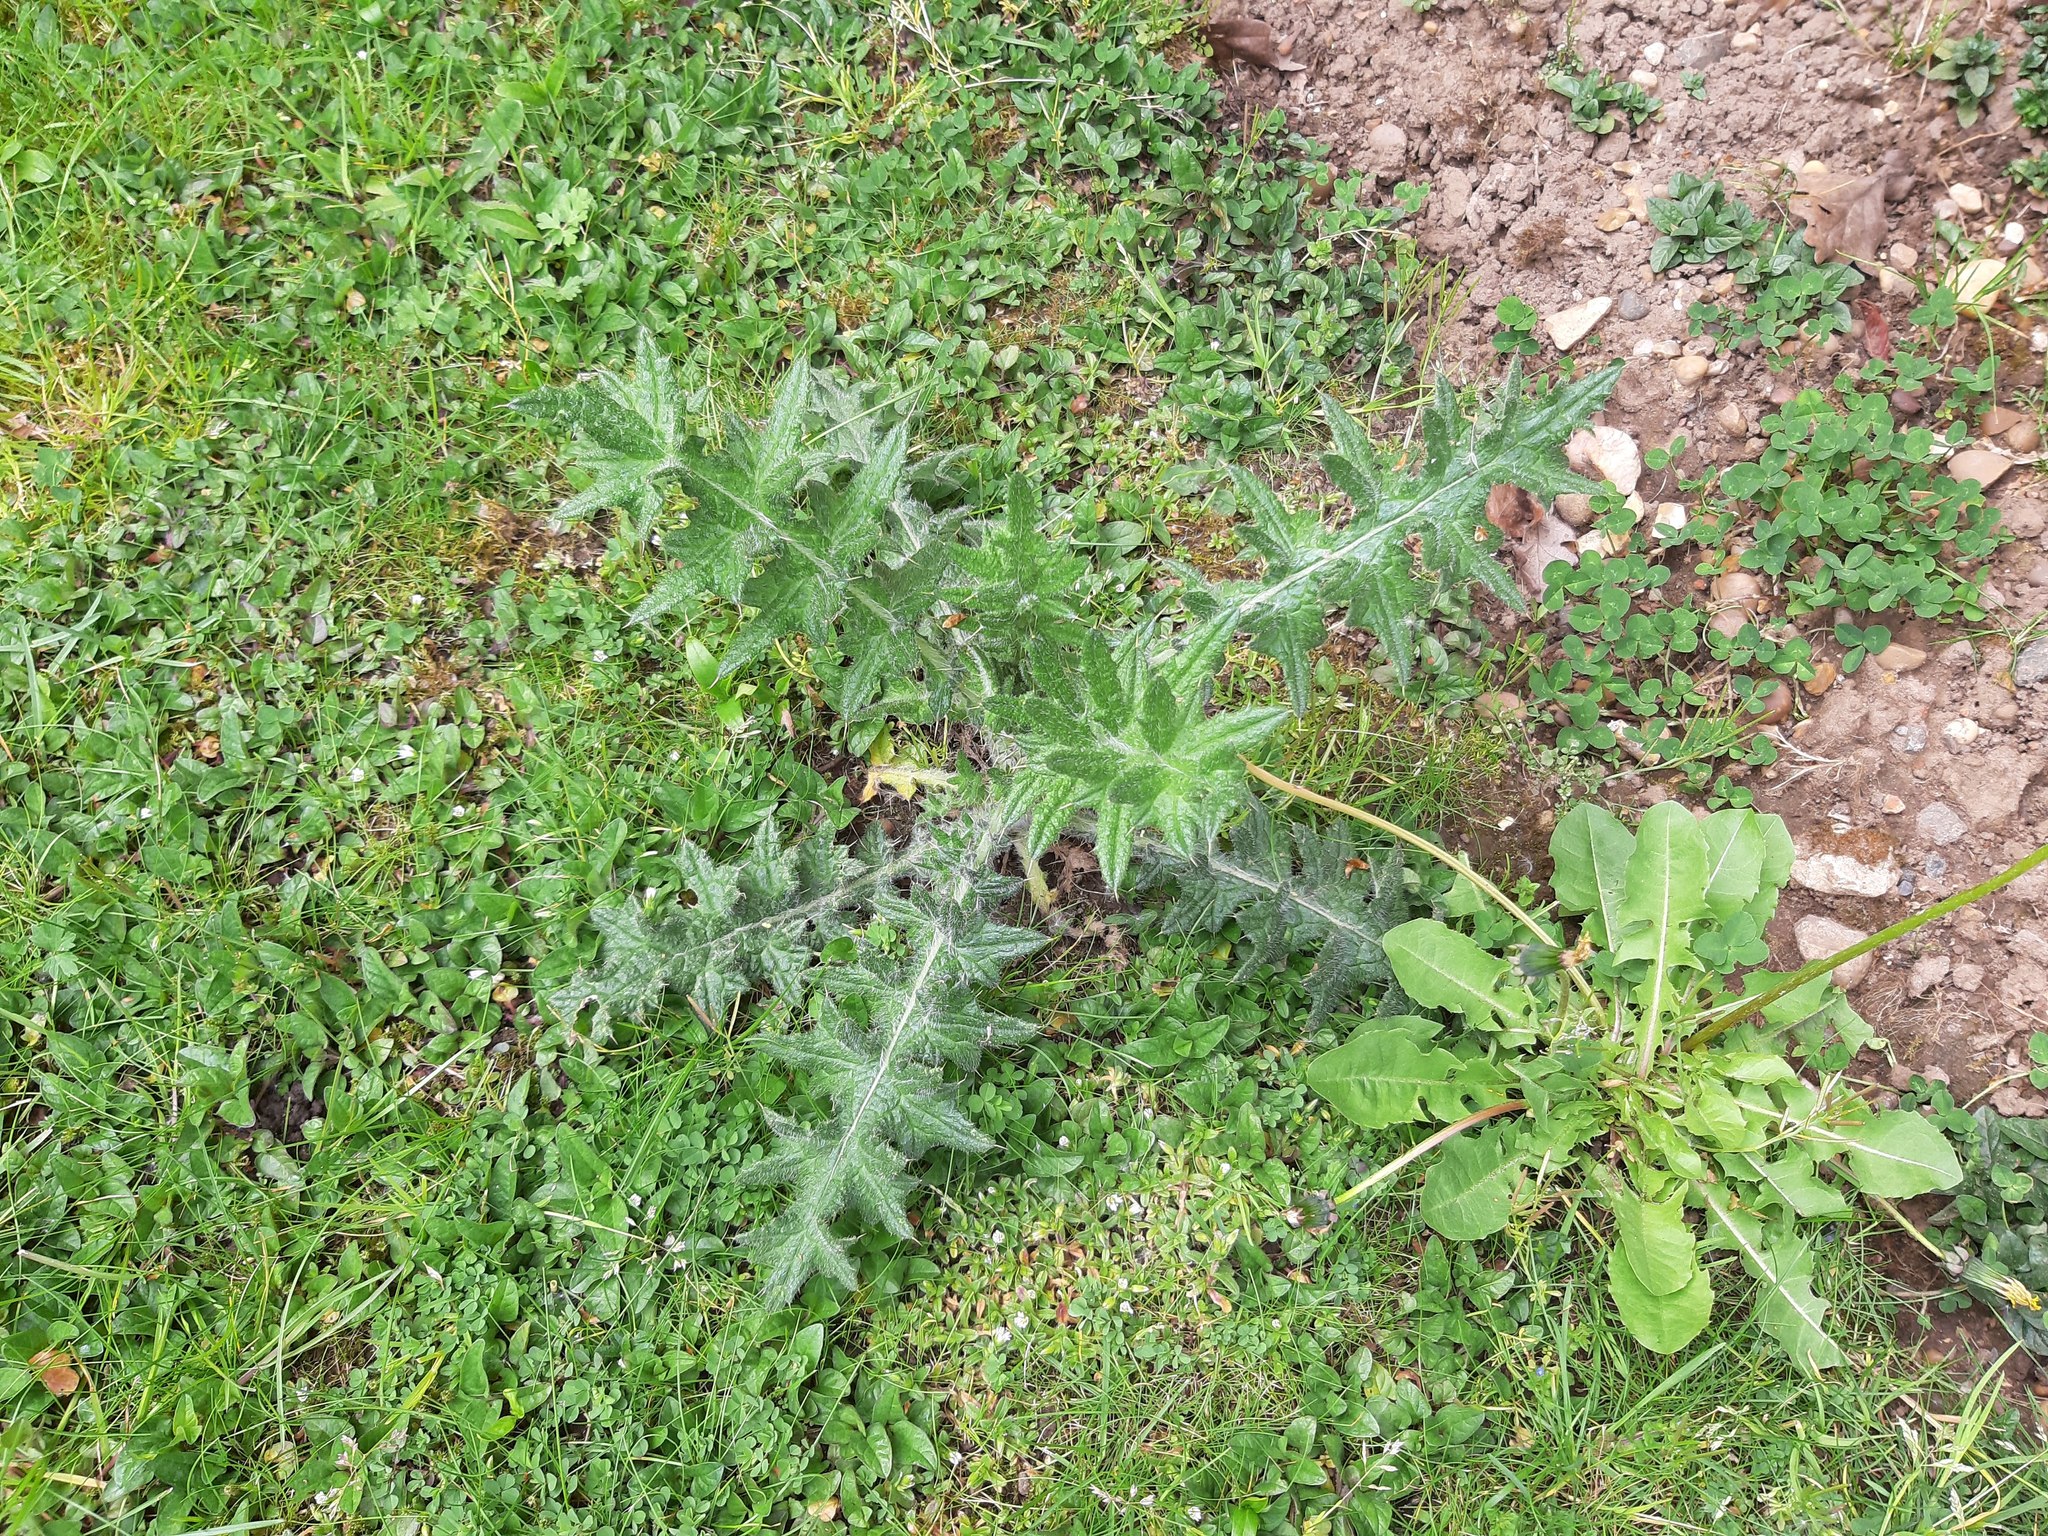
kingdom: Plantae
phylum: Tracheophyta
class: Magnoliopsida
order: Asterales
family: Asteraceae
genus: Cirsium
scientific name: Cirsium vulgare
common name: Bull thistle
